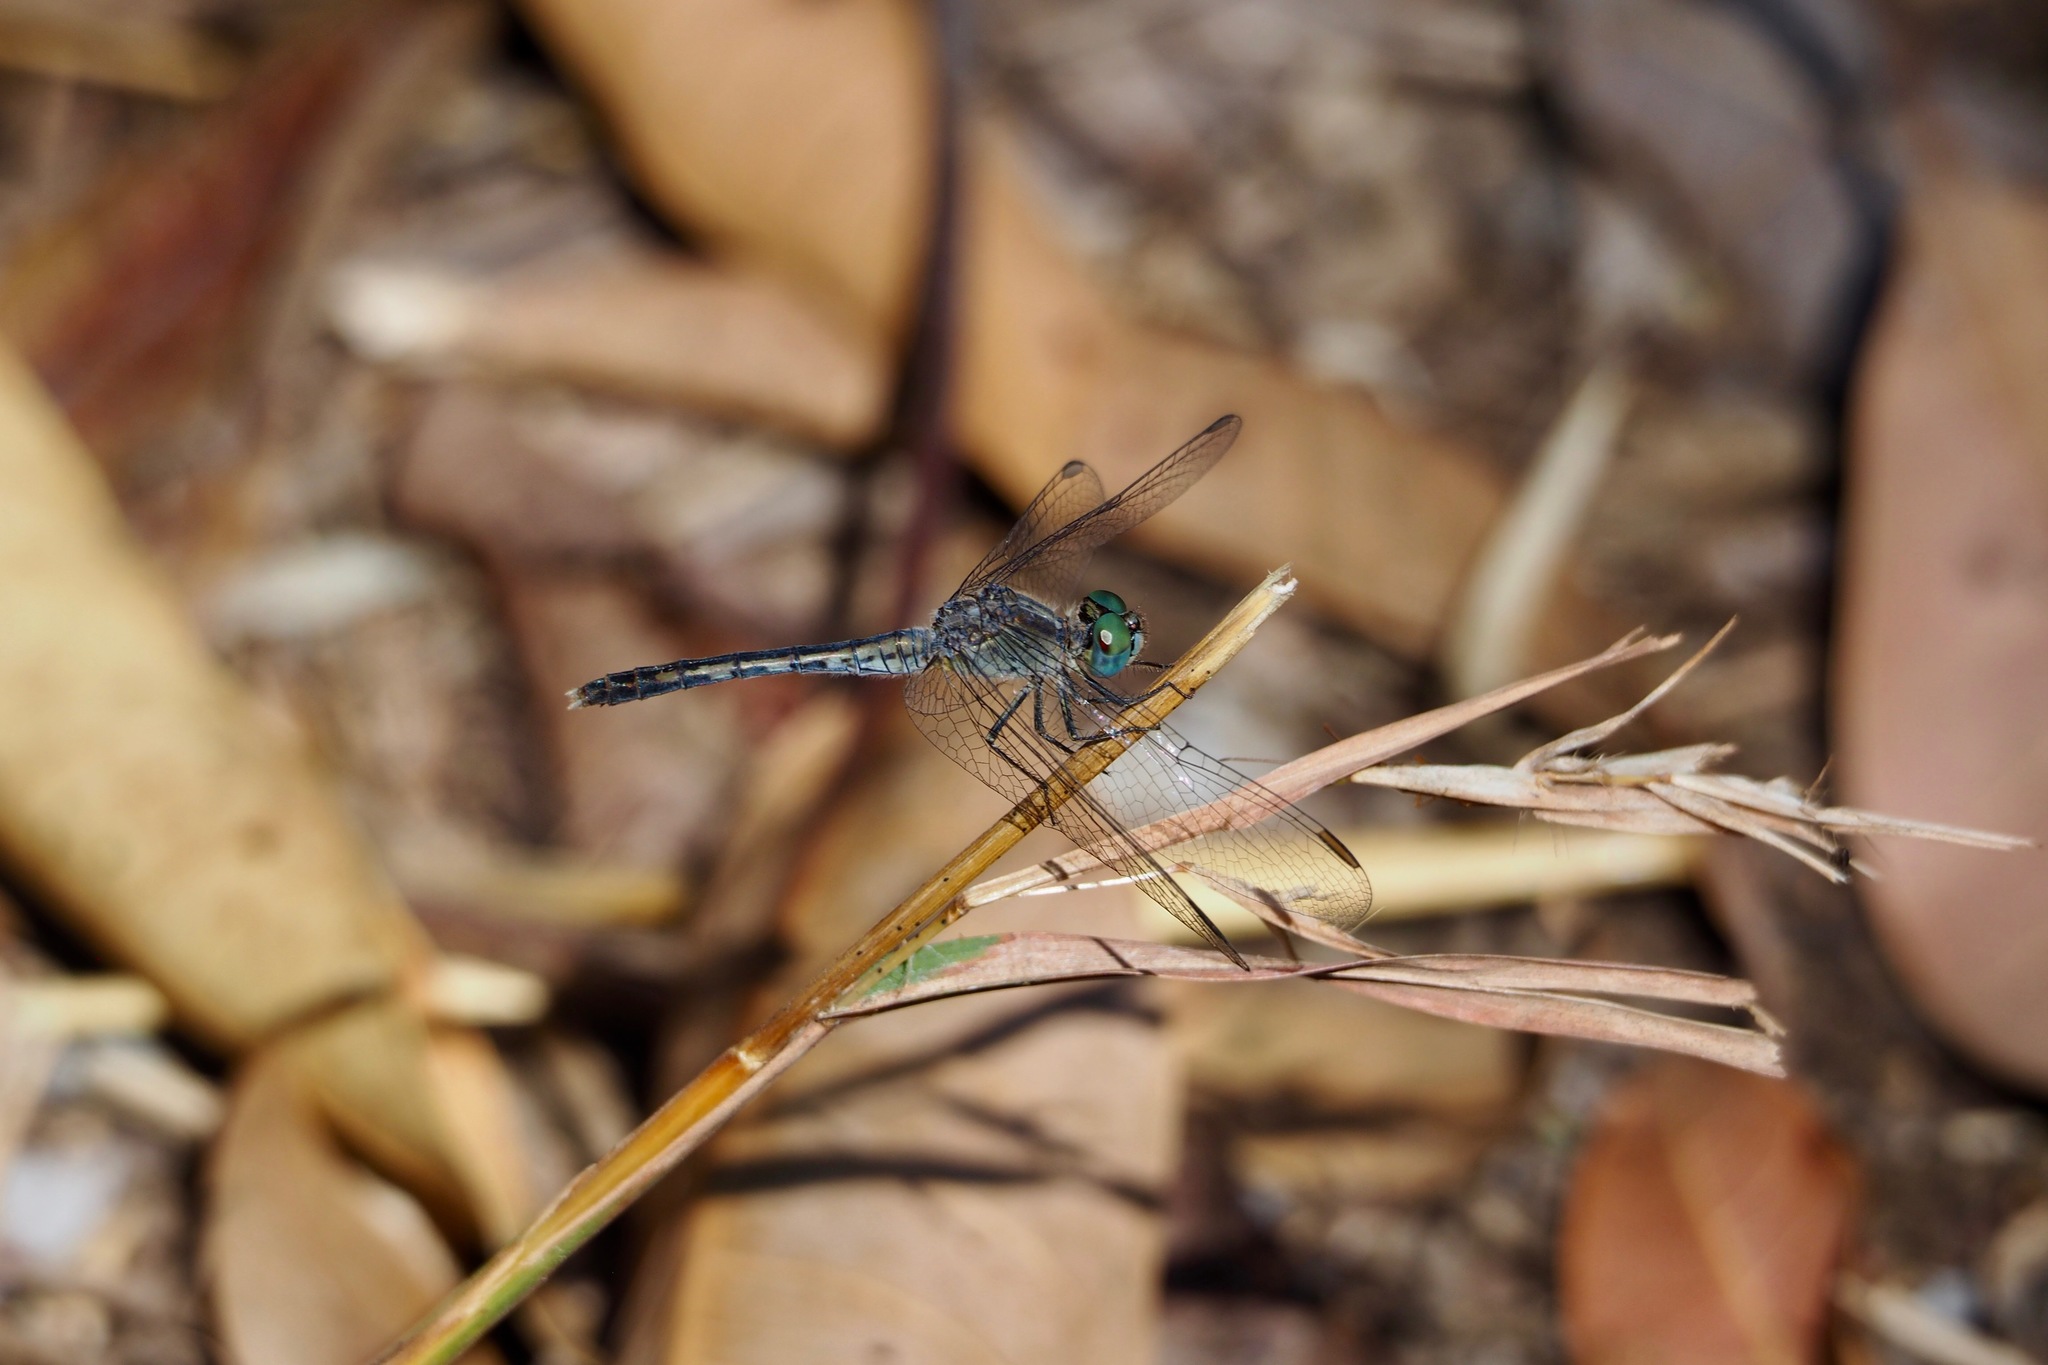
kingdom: Animalia
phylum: Arthropoda
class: Insecta
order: Odonata
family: Libellulidae
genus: Diplacodes
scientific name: Diplacodes trivialis
